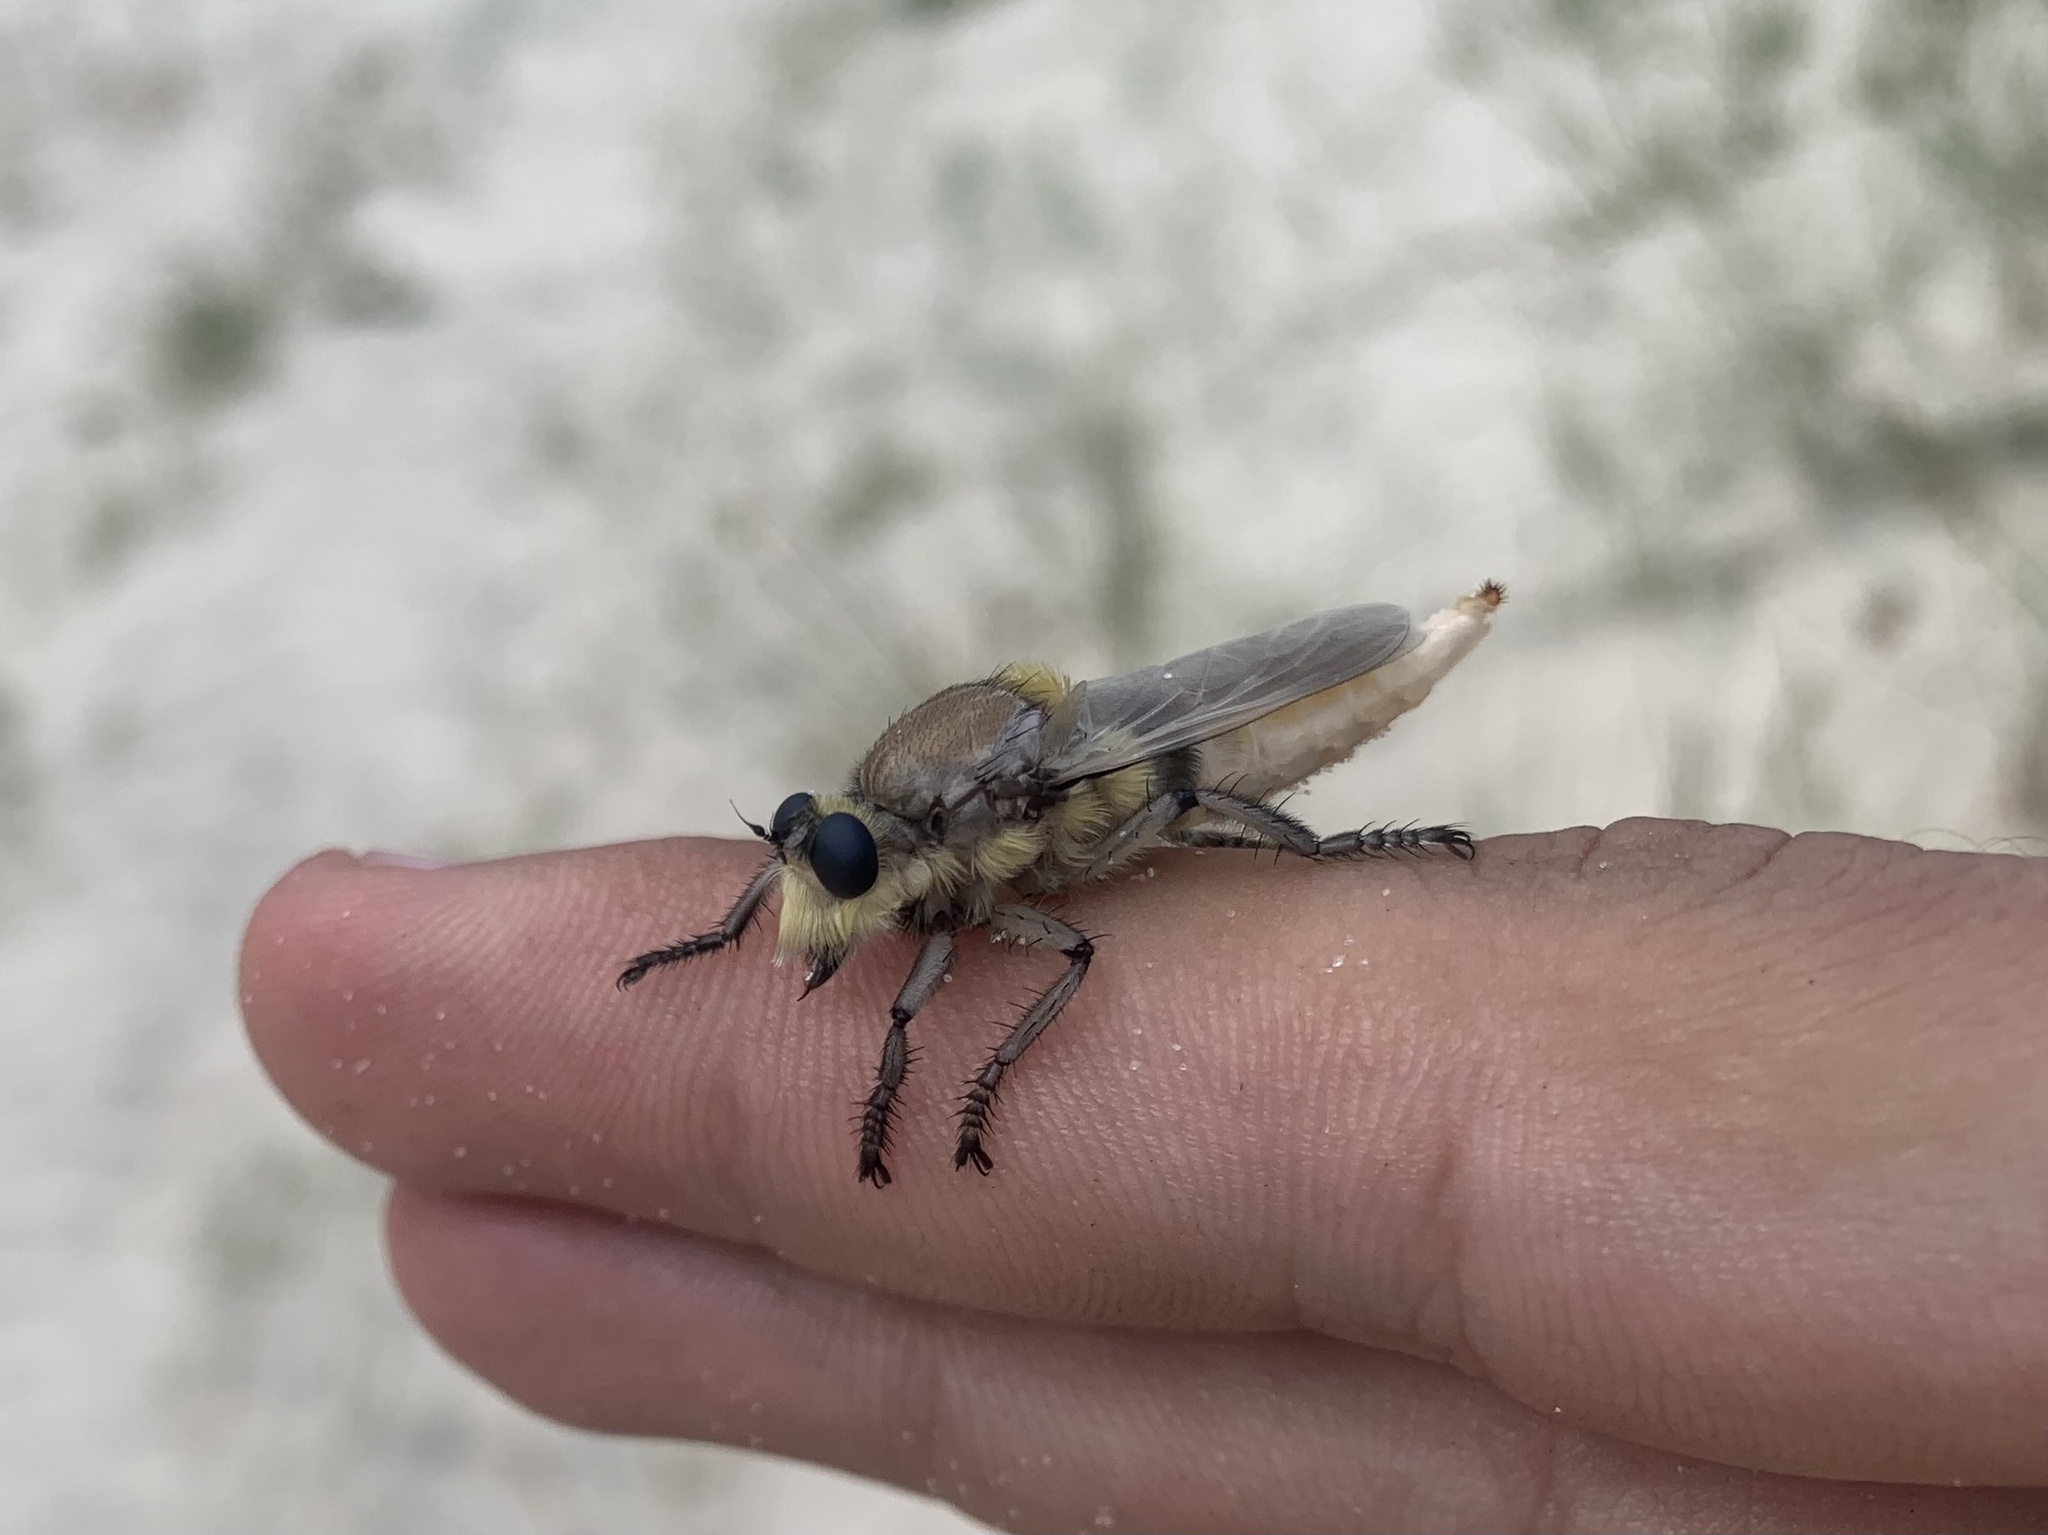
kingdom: Animalia
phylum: Arthropoda
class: Insecta
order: Diptera
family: Asilidae
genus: Eccritosia
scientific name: Eccritosia rubriventris
